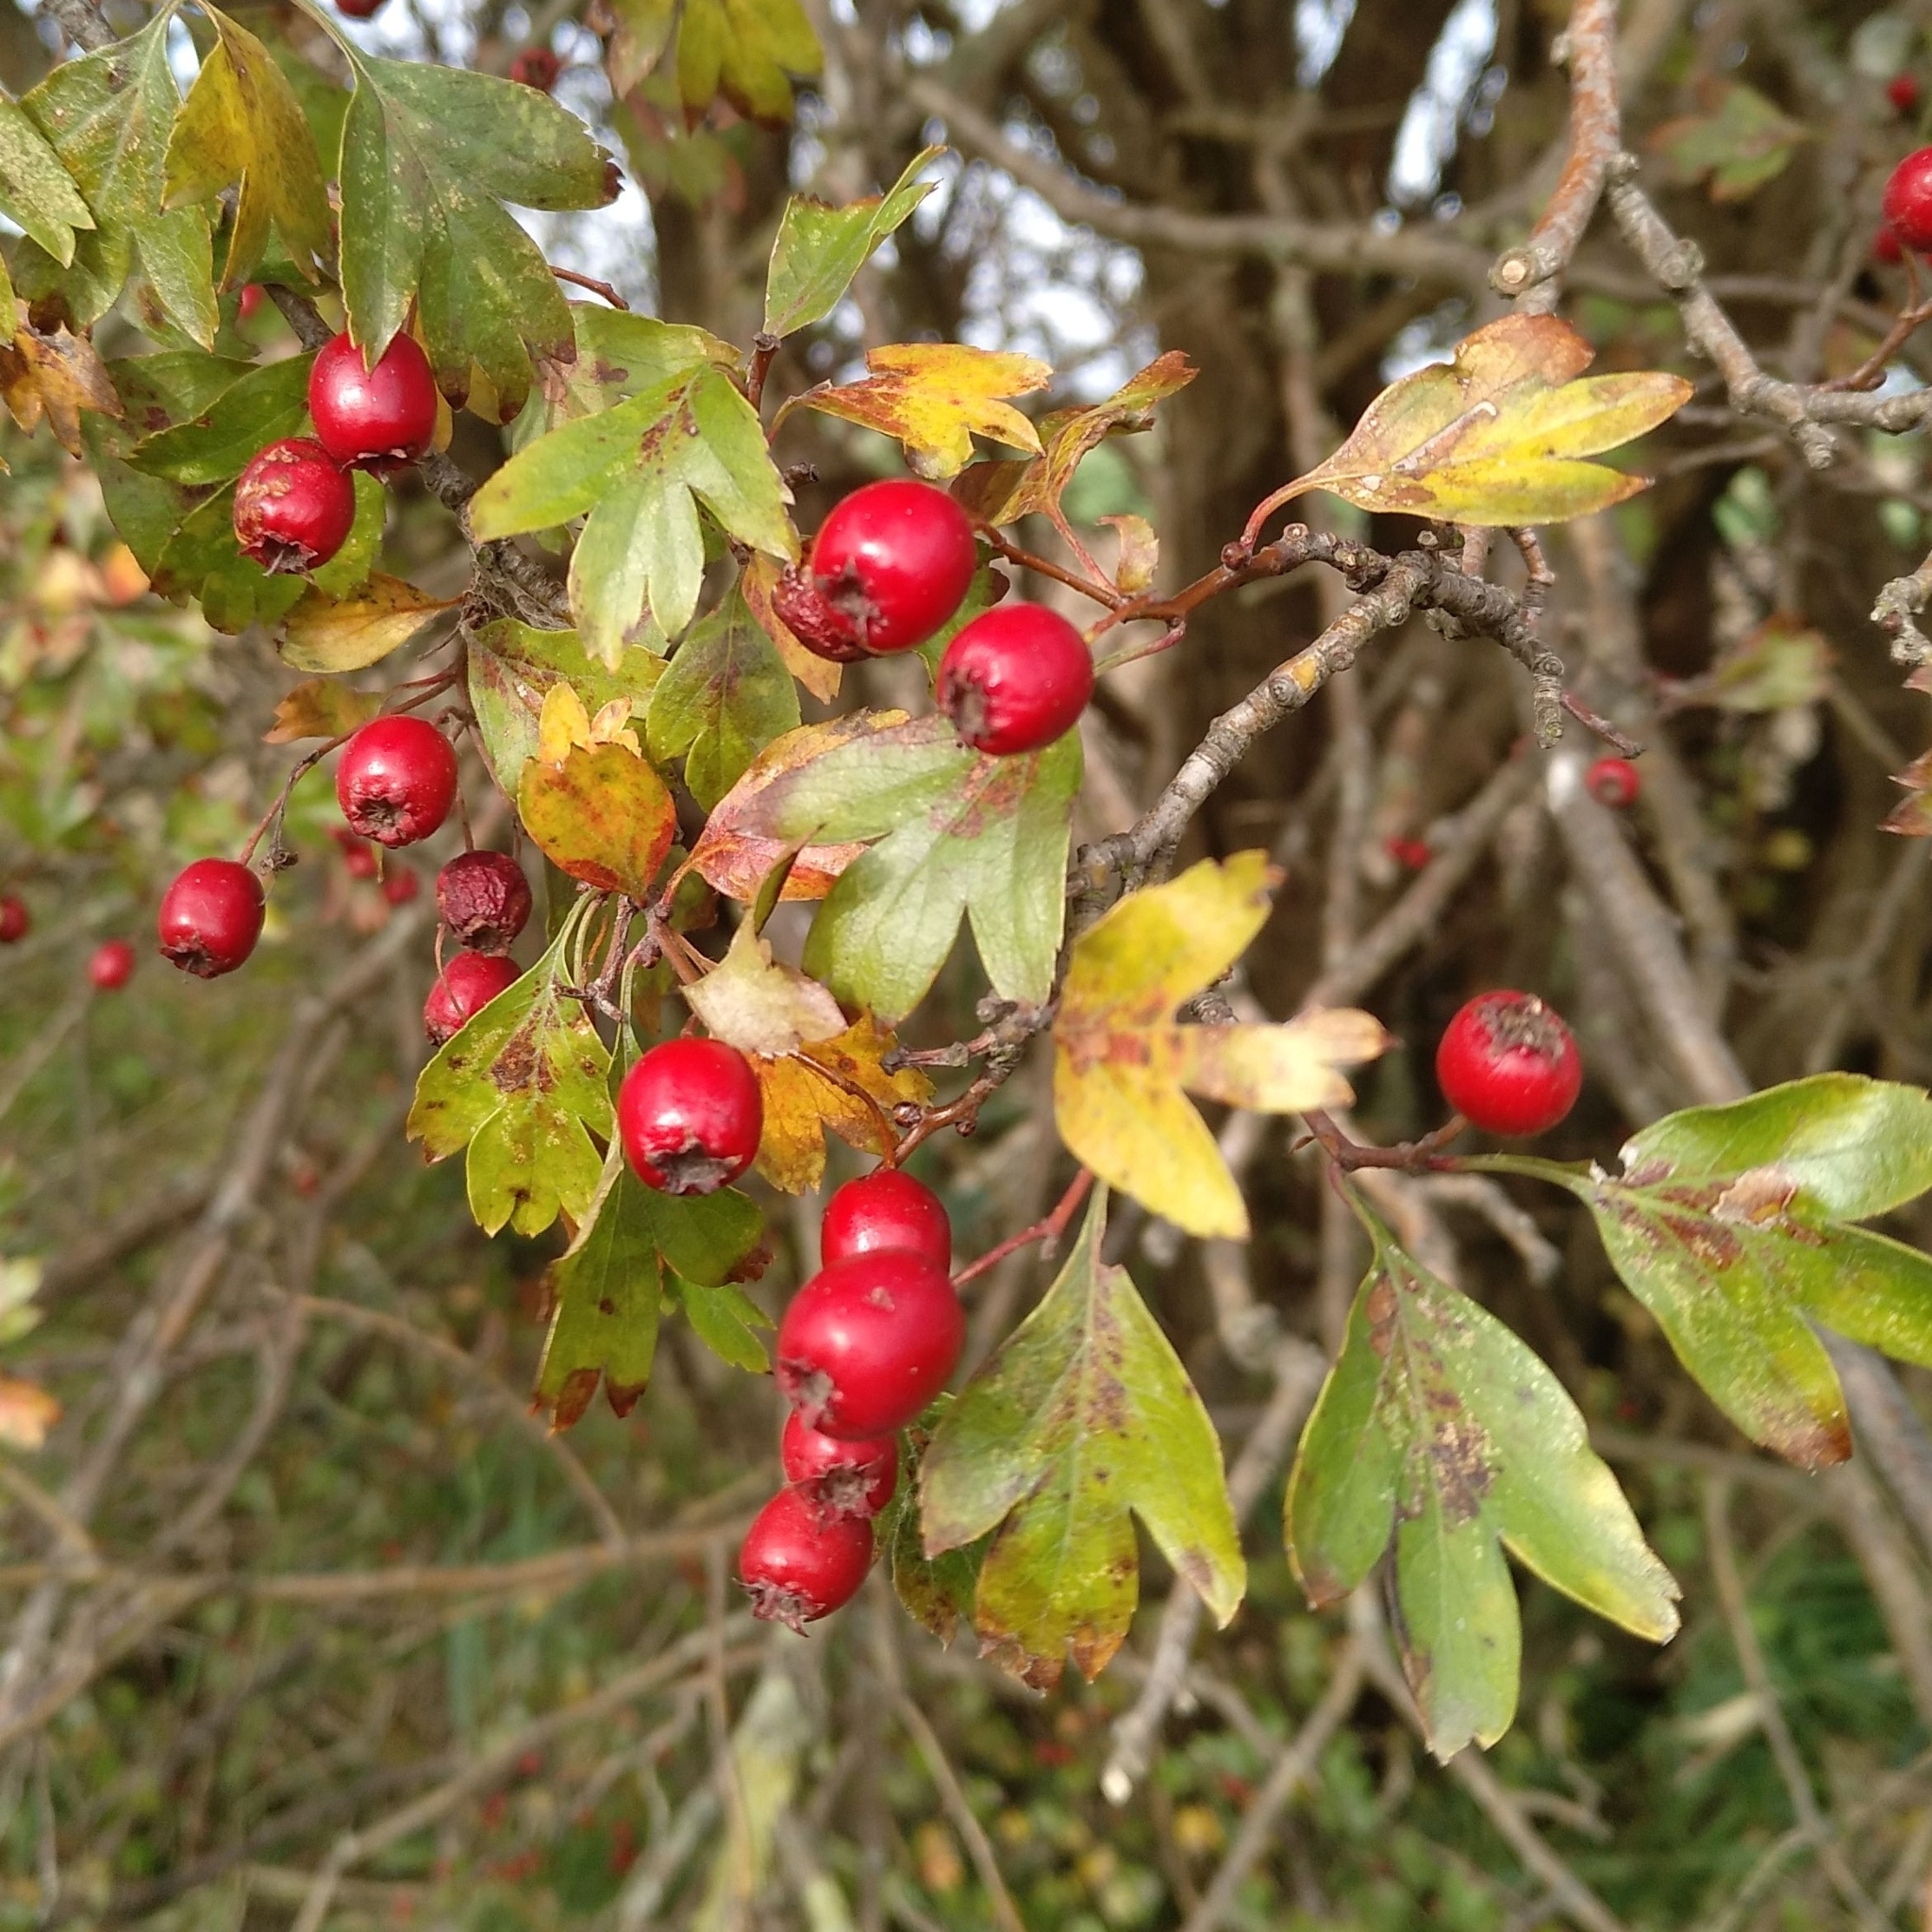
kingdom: Plantae
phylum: Tracheophyta
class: Magnoliopsida
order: Rosales
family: Rosaceae
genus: Crataegus
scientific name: Crataegus monogyna
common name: Hawthorn
